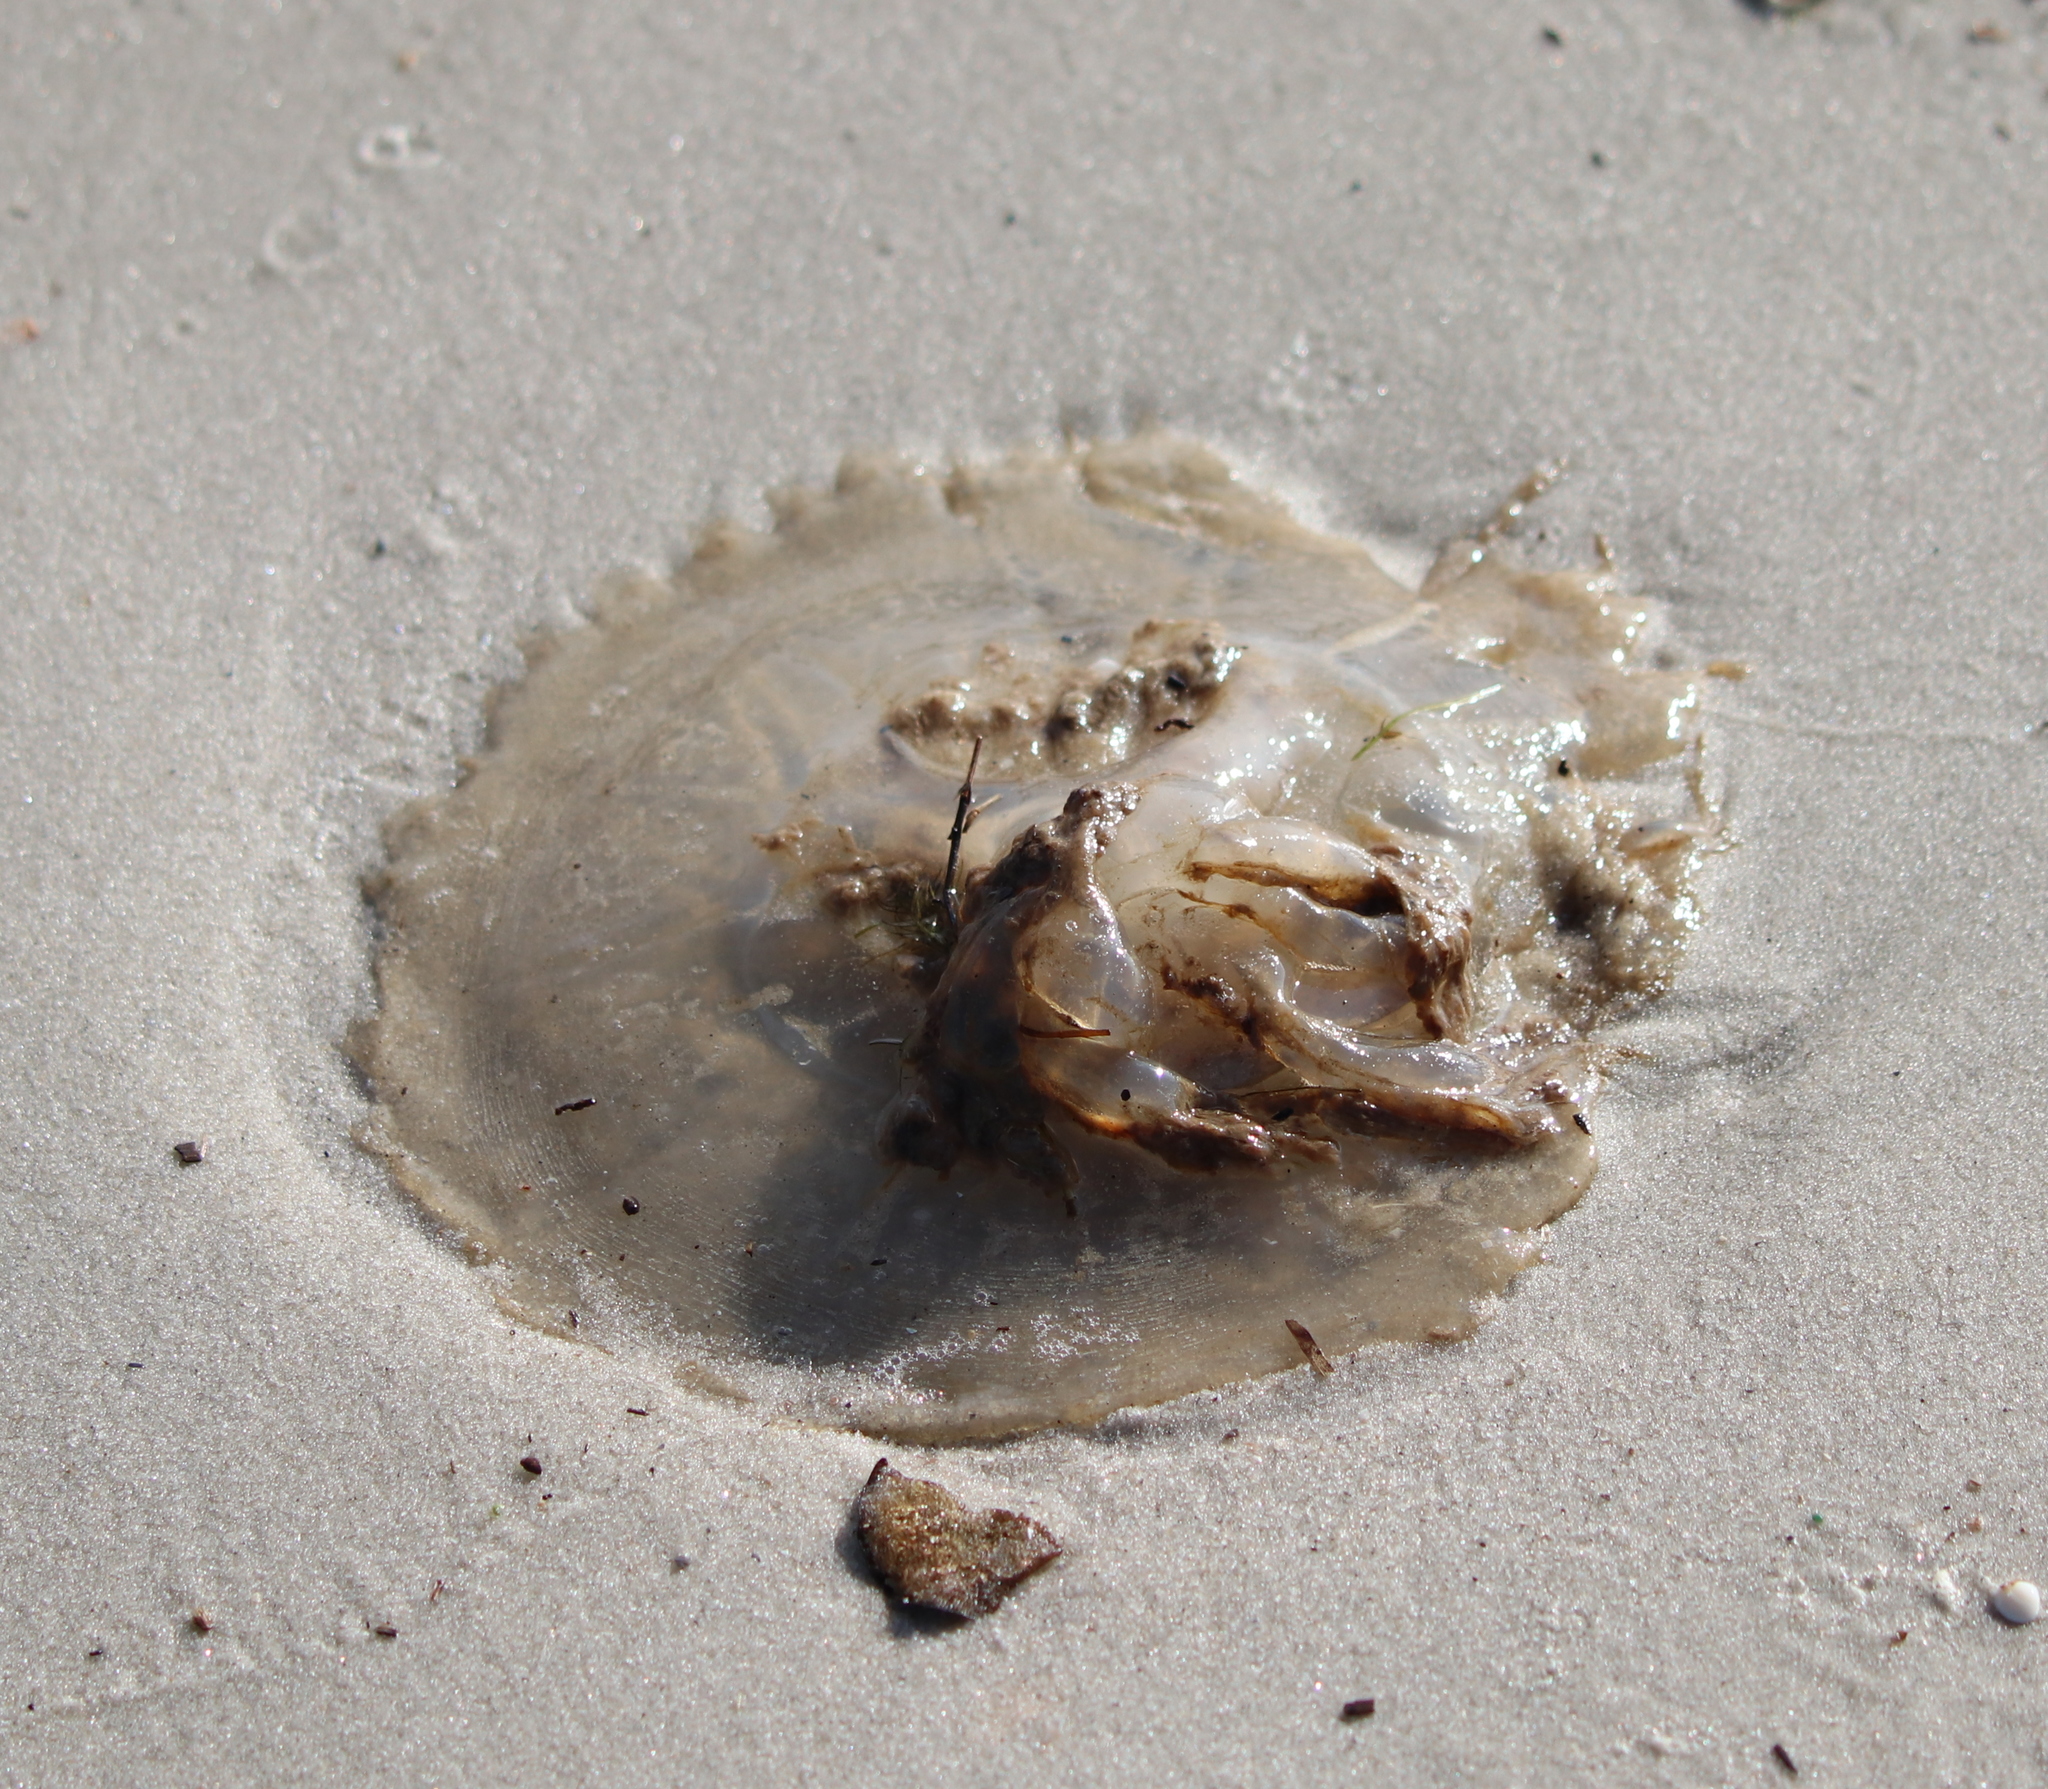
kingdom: Animalia
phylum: Cnidaria
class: Scyphozoa
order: Rhizostomeae
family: Rhizostomatidae
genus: Rhopilema
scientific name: Rhopilema verrilli
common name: Mushroom cap jellyfish
